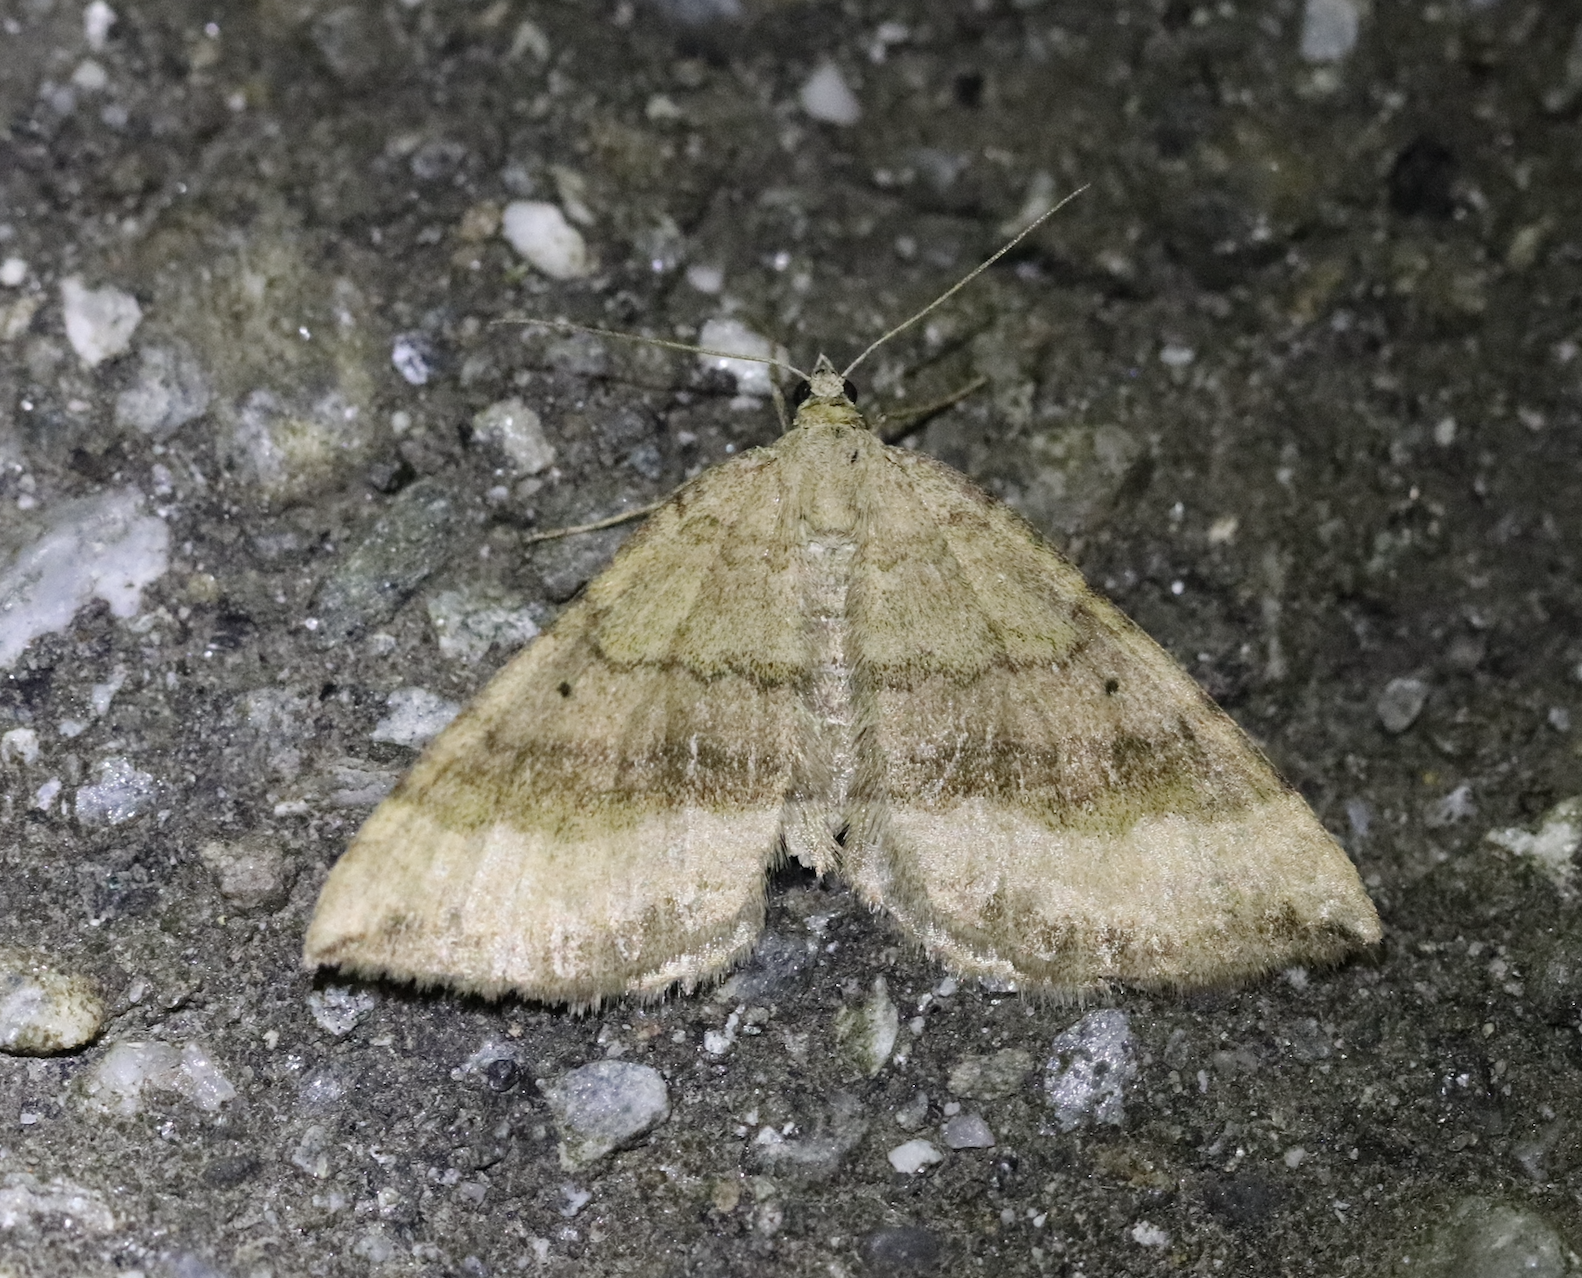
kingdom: Animalia
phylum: Arthropoda
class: Insecta
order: Lepidoptera
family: Geometridae
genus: Scotopteryx
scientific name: Scotopteryx chenopodiata
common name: Shaded broad-bar
